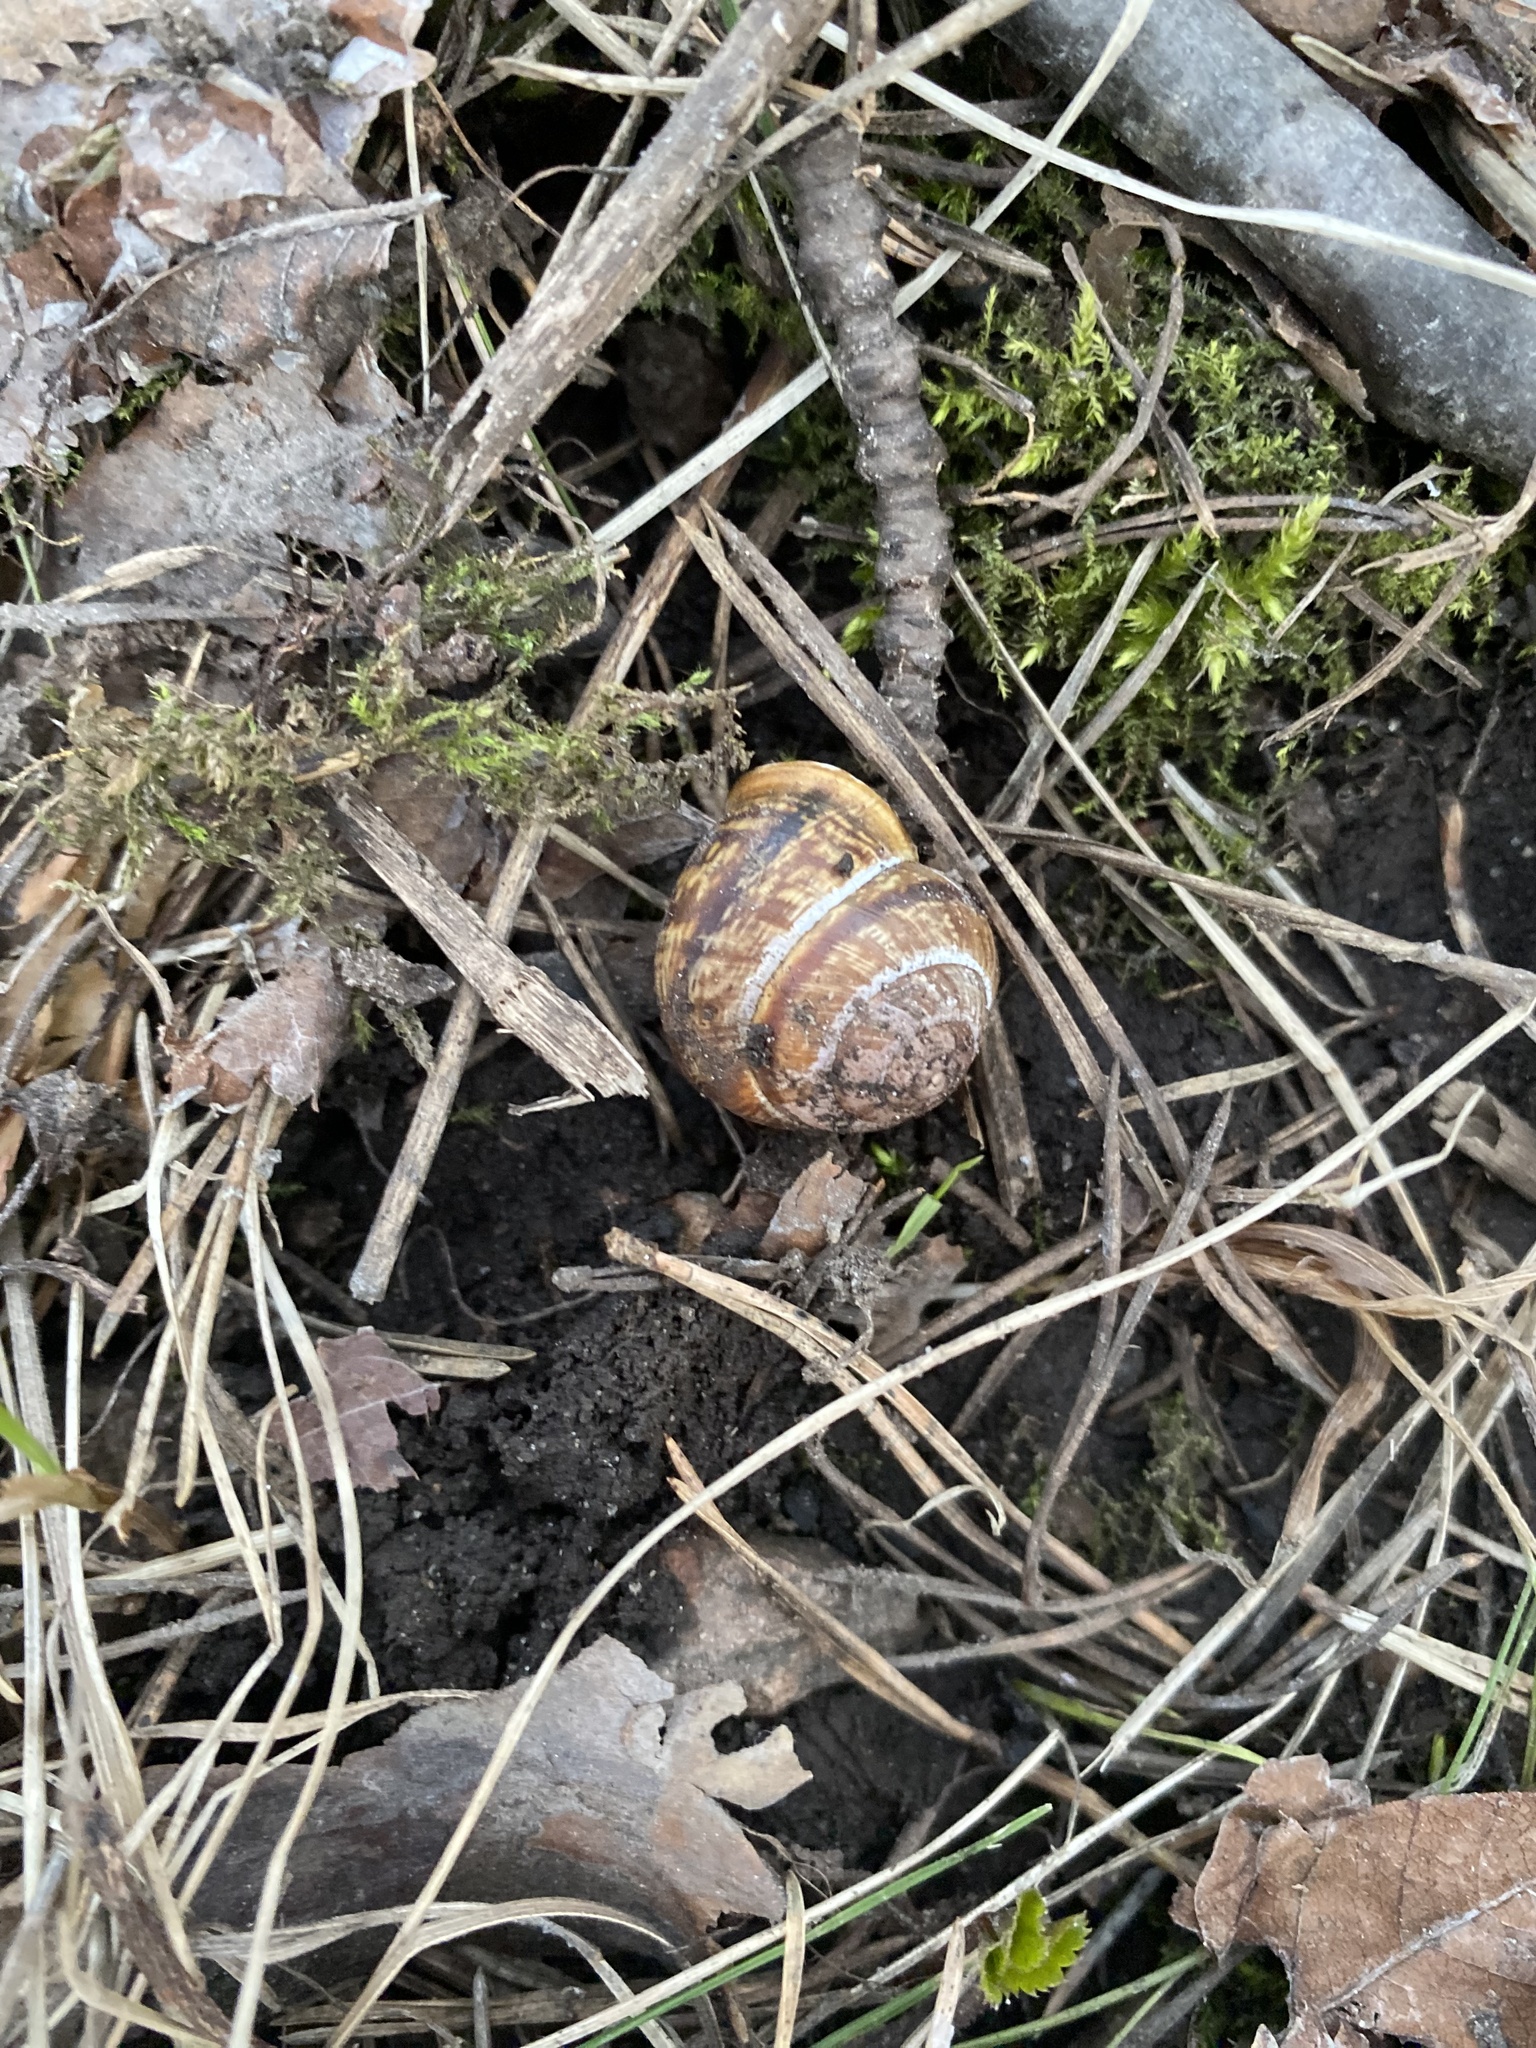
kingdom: Animalia
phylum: Mollusca
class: Gastropoda
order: Stylommatophora
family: Helicidae
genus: Arianta
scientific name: Arianta arbustorum
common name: Copse snail
